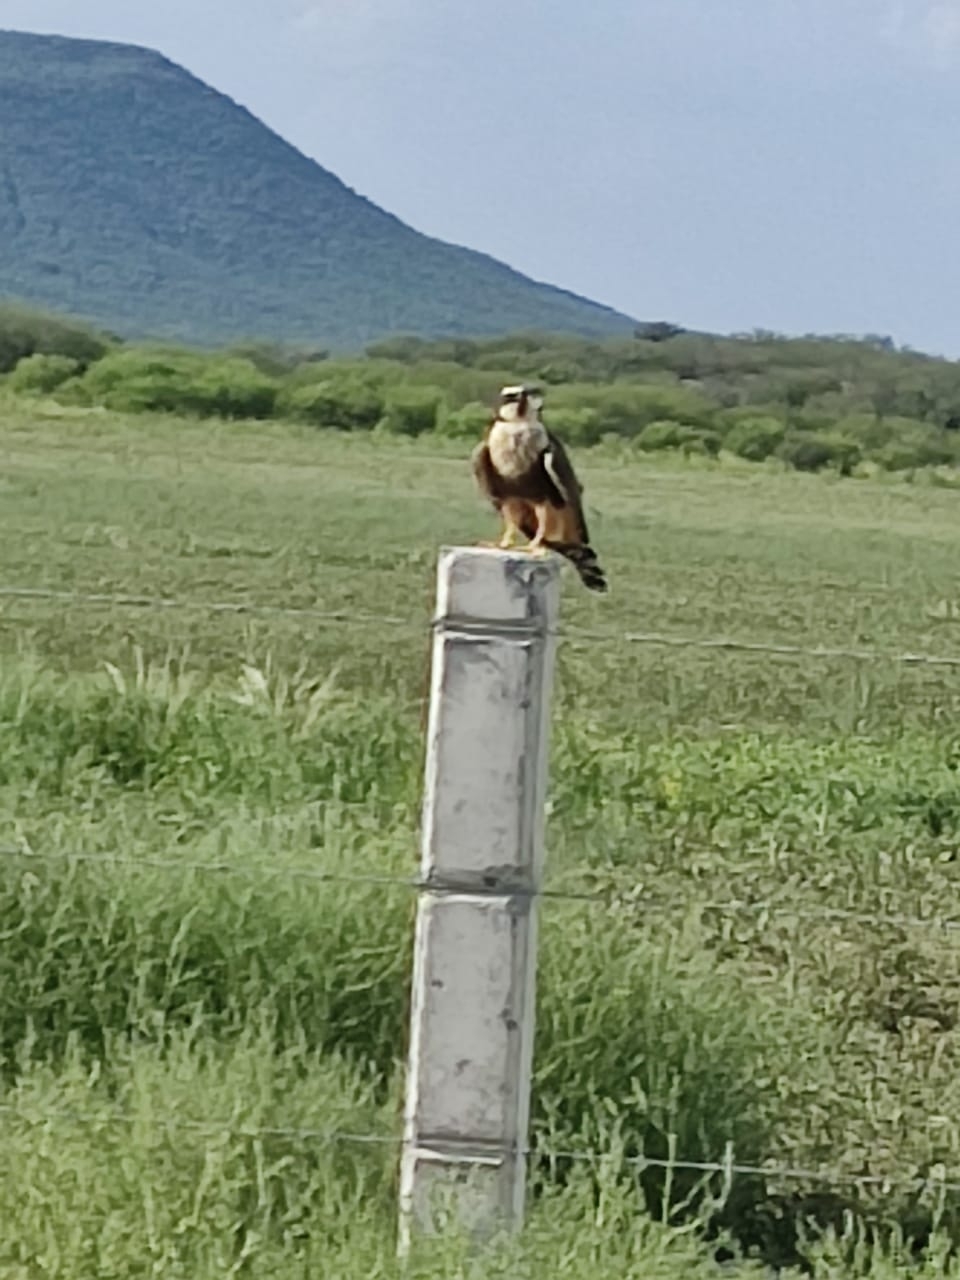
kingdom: Animalia
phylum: Chordata
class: Aves
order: Falconiformes
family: Falconidae
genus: Falco
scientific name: Falco femoralis
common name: Aplomado falcon
